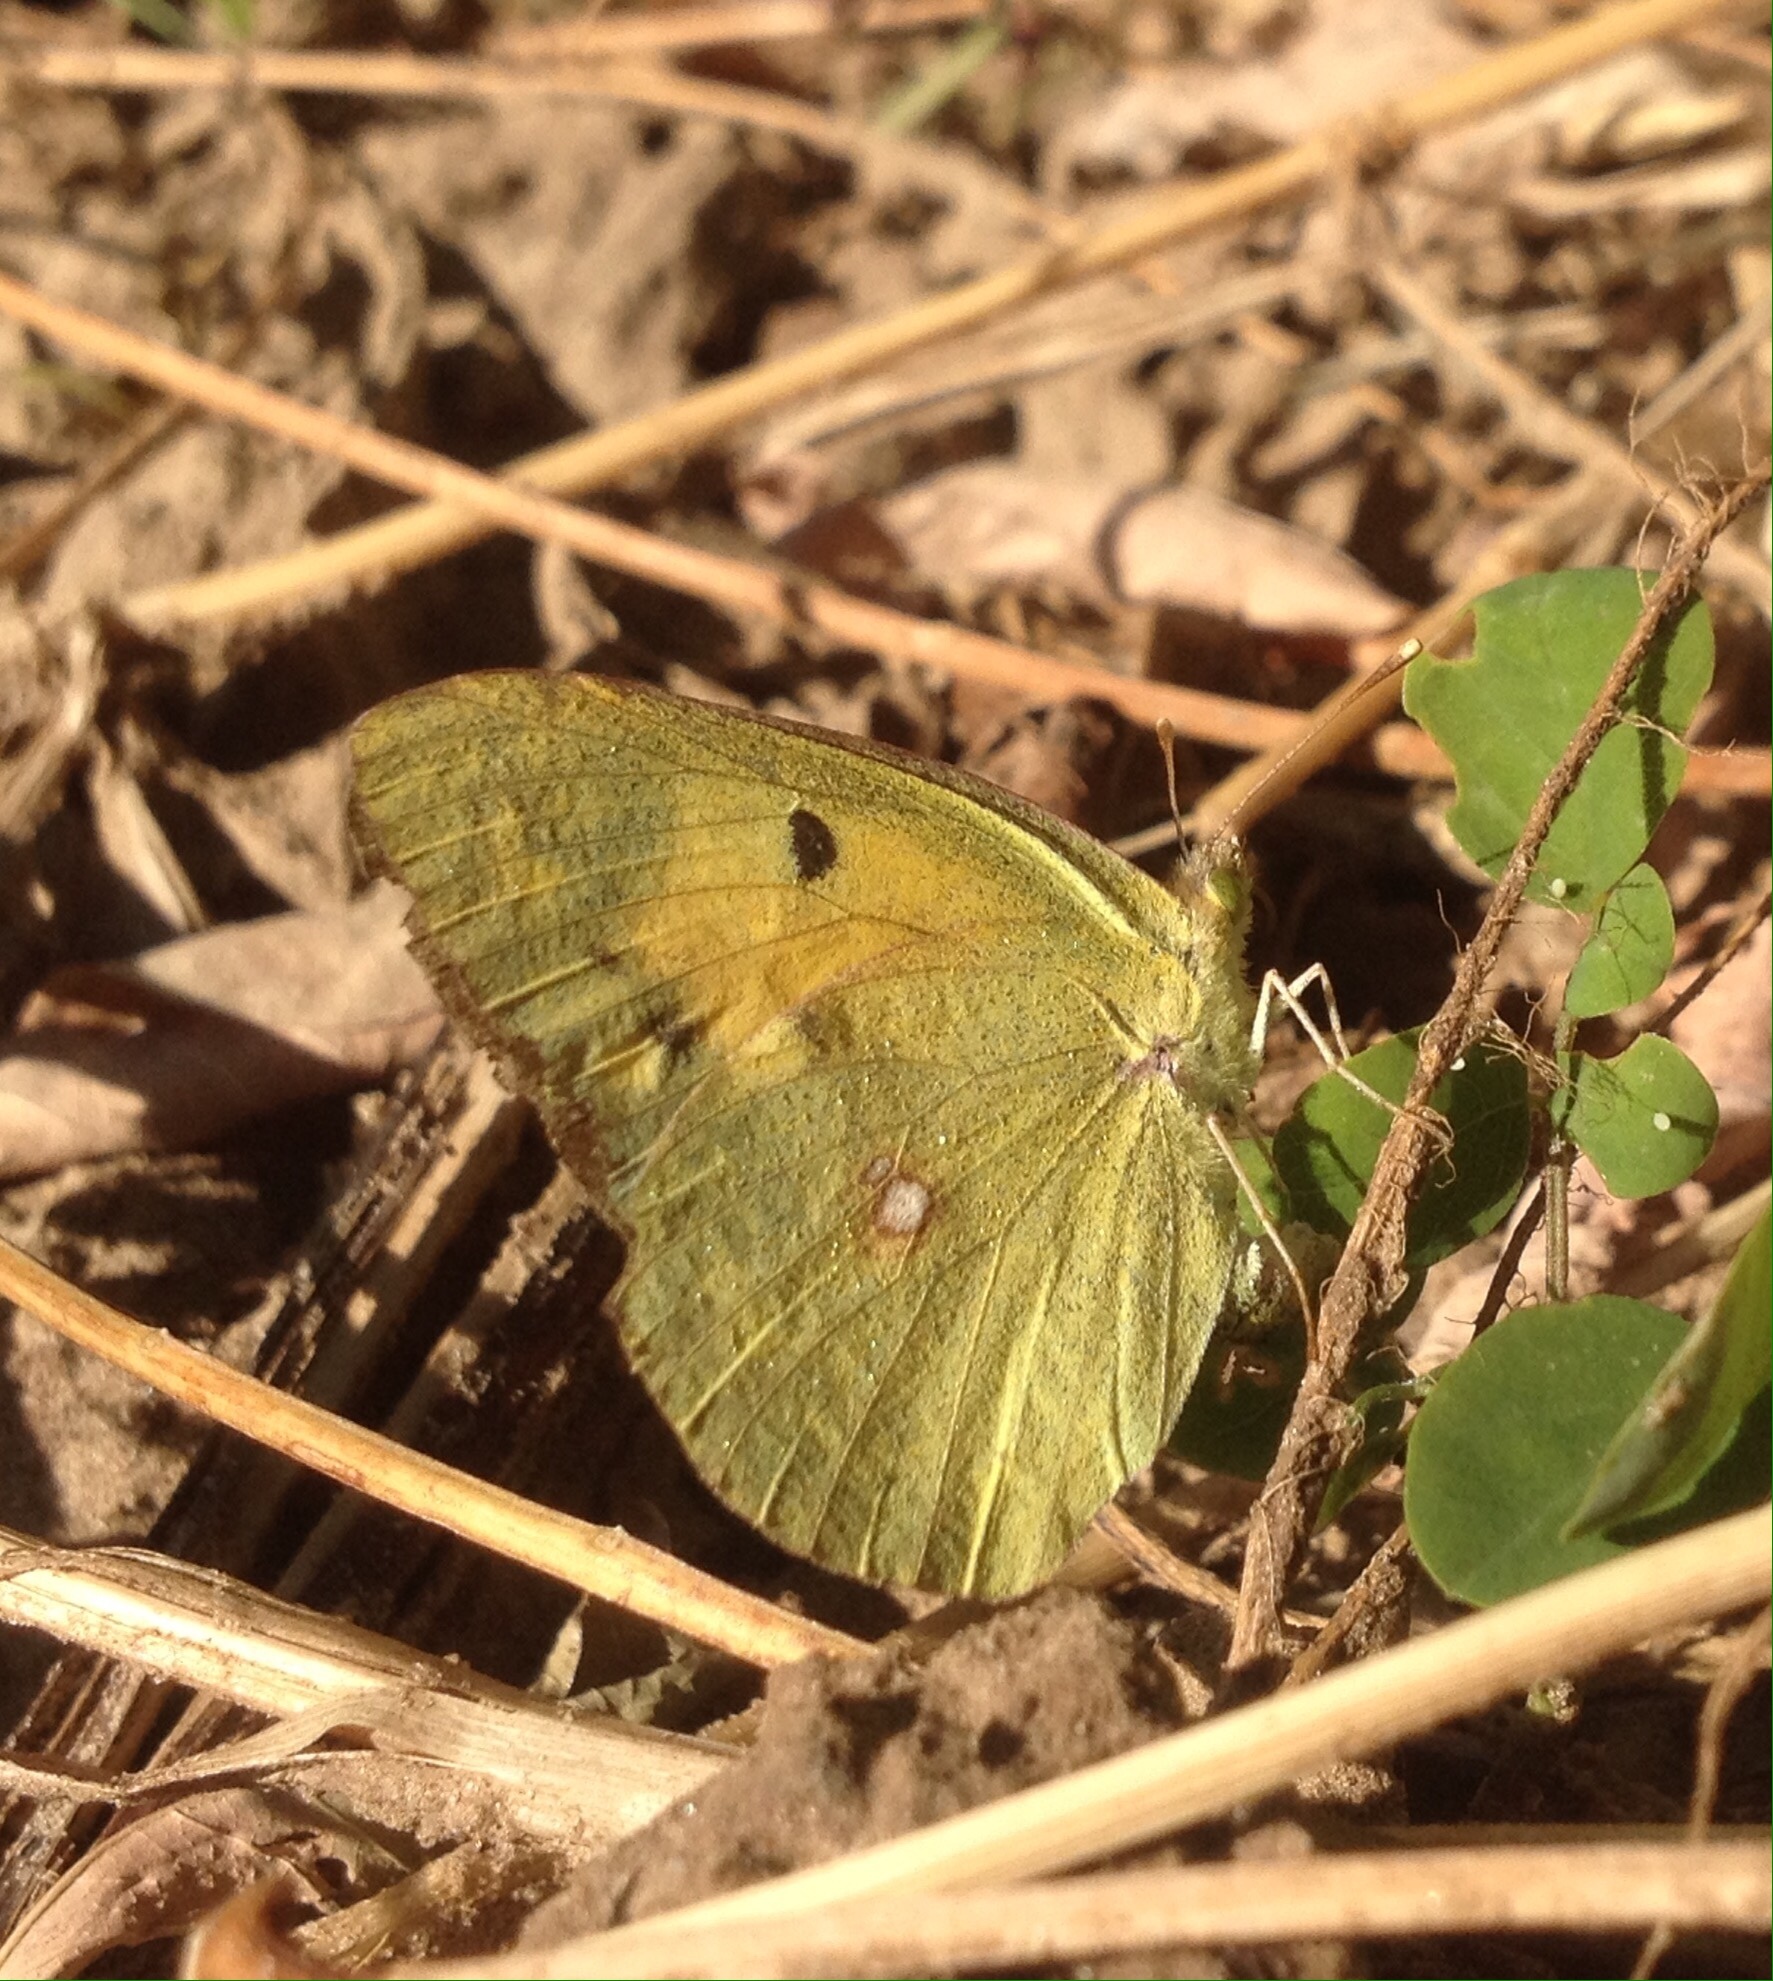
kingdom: Animalia
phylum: Arthropoda
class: Insecta
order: Lepidoptera
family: Pieridae
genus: Colias
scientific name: Colias erate
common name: Eastern pale clouded yellow
